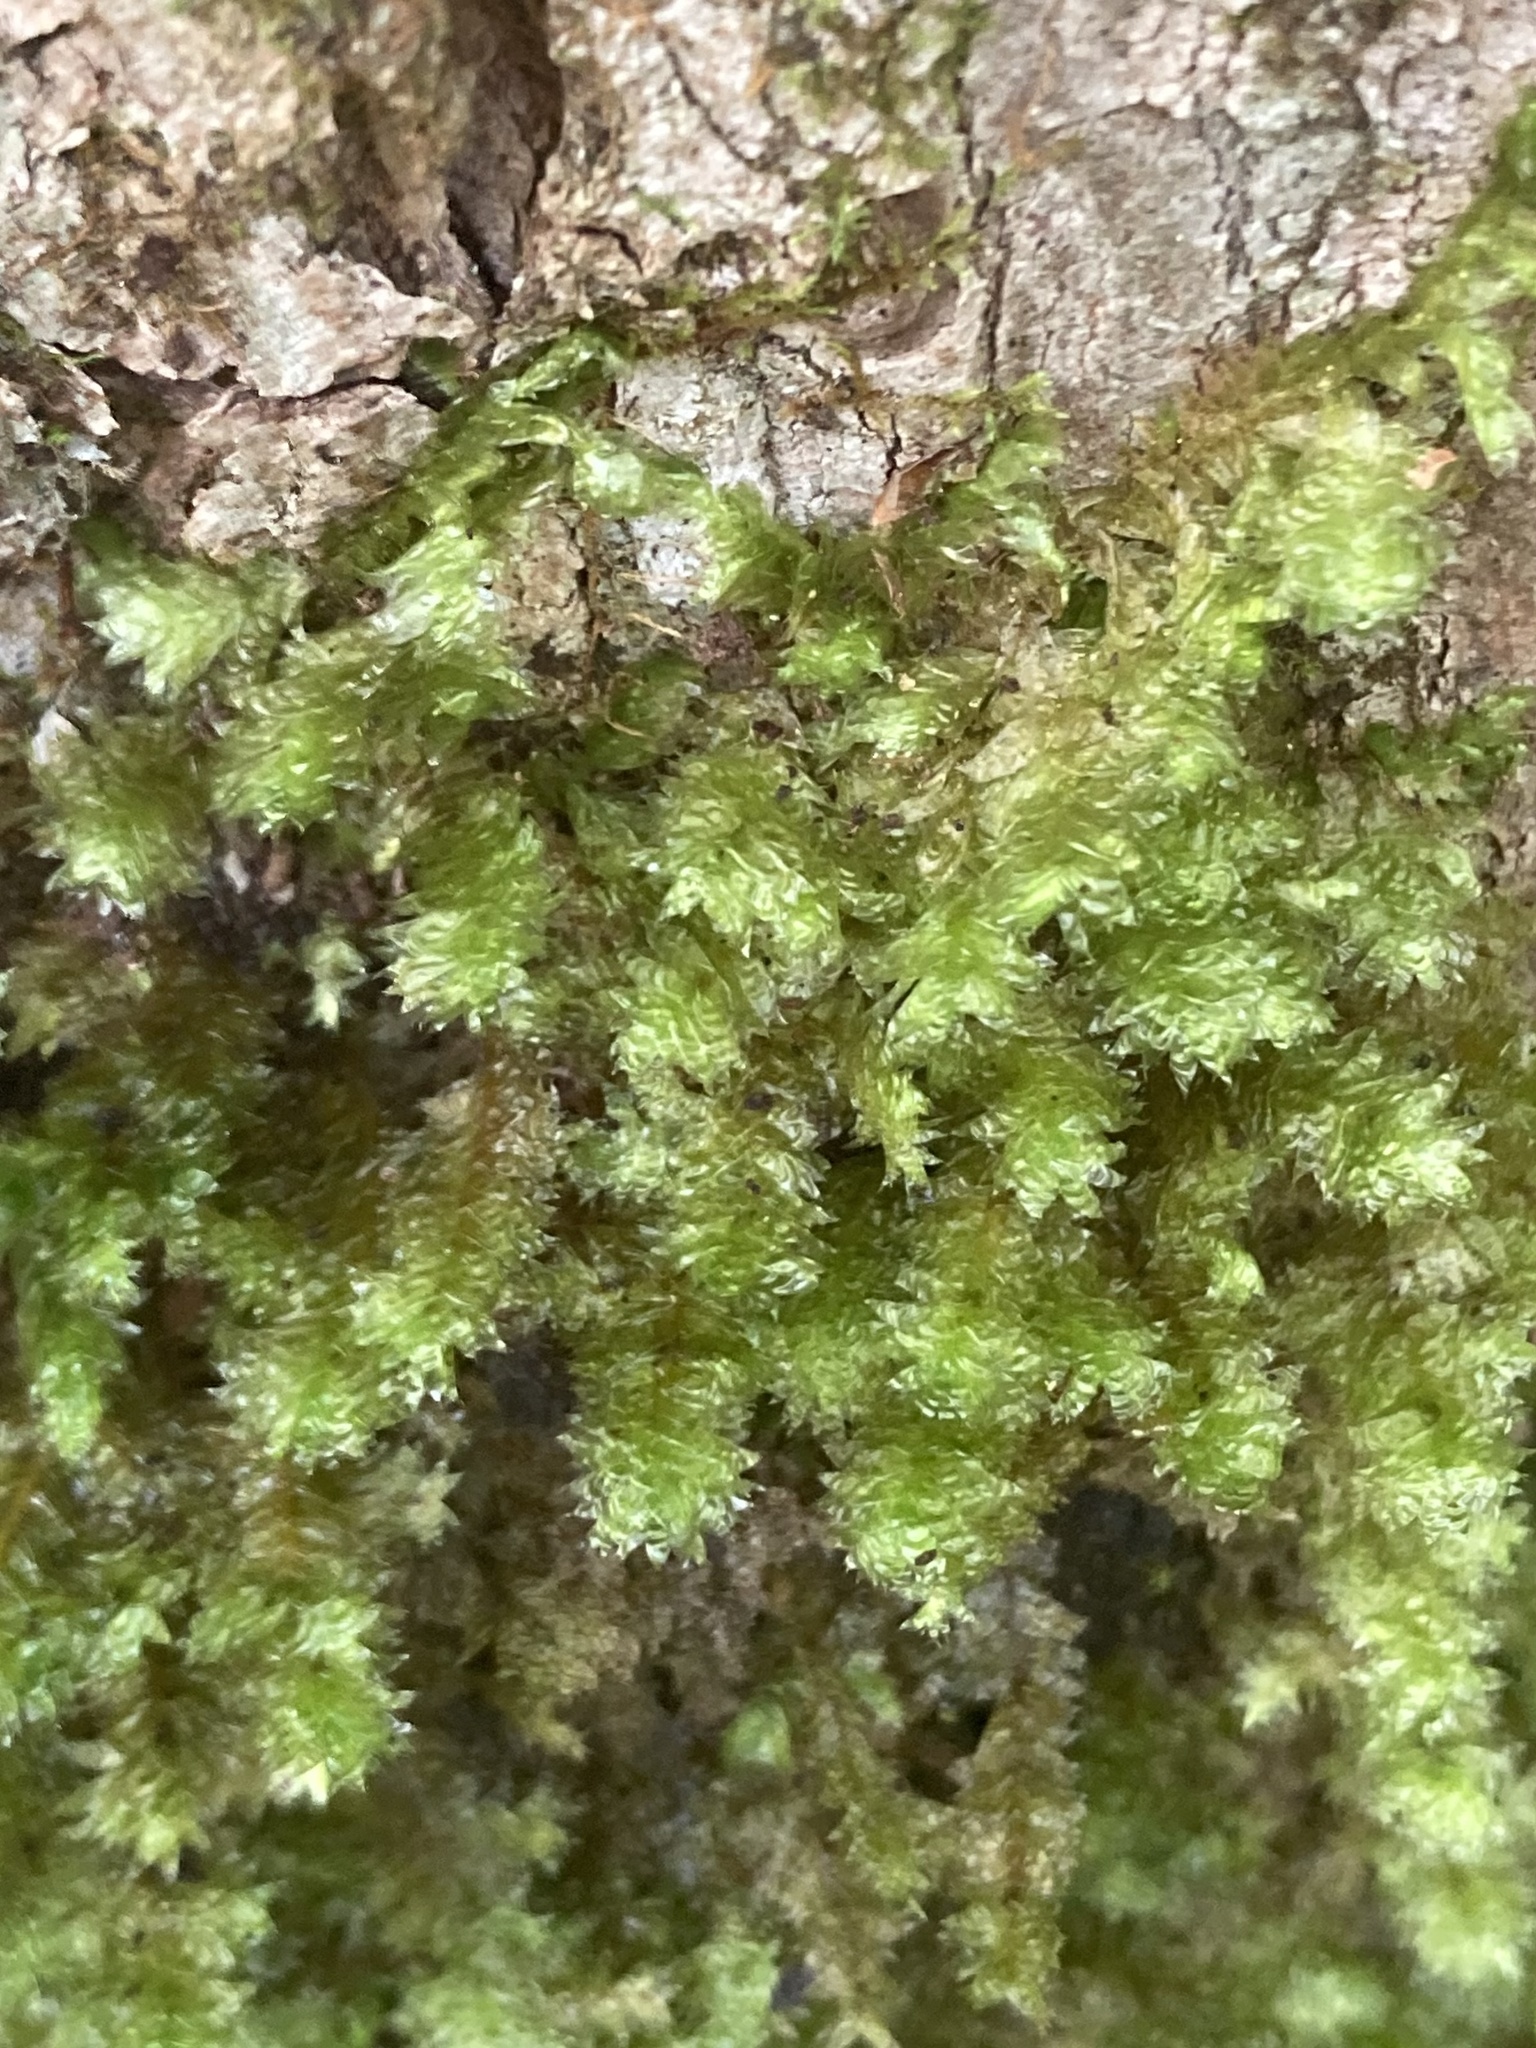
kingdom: Plantae
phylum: Bryophyta
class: Bryopsida
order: Hypnales
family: Neckeraceae
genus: Neckera
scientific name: Neckera pennata
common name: Feathery neckera
